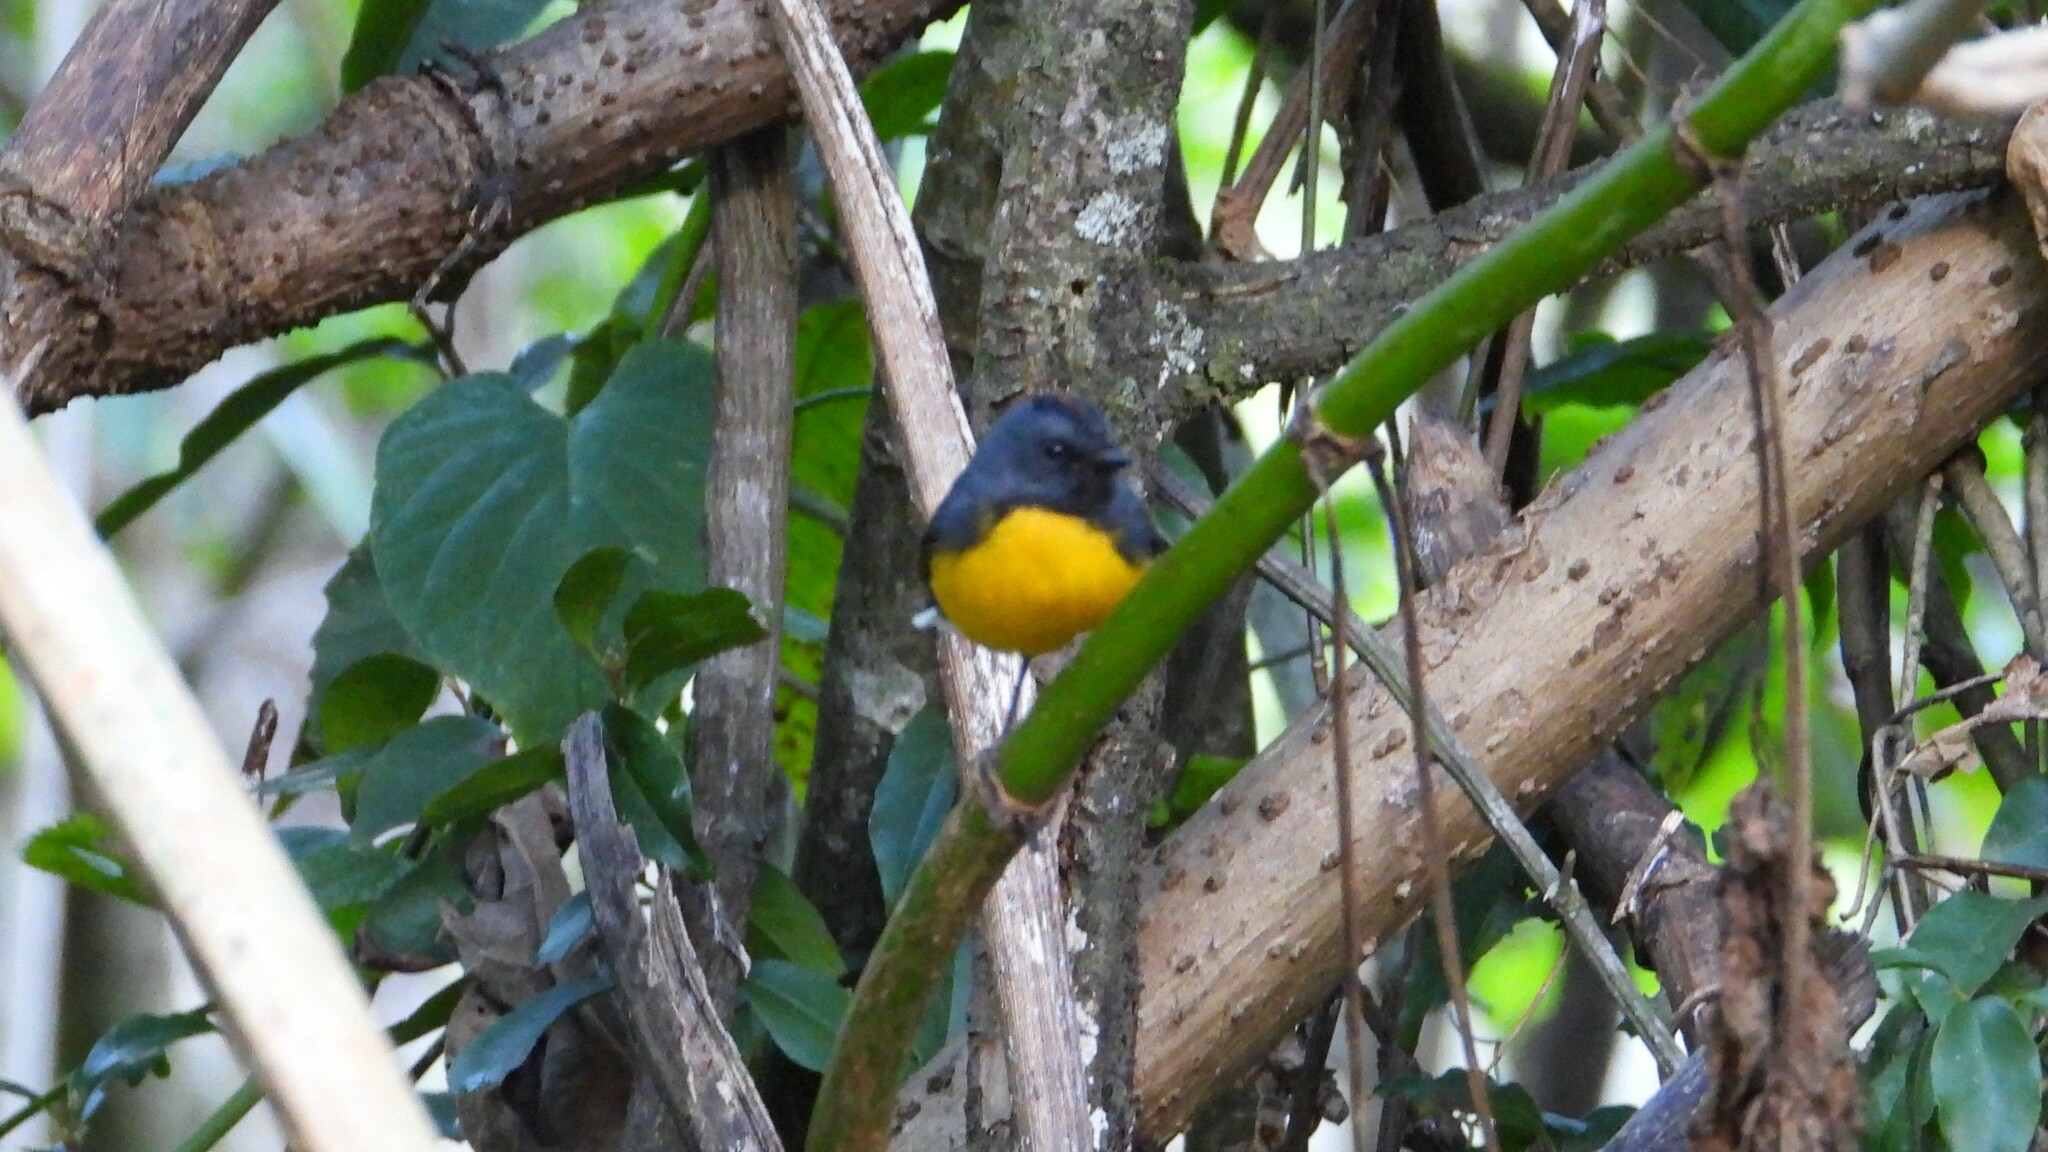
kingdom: Animalia
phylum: Chordata
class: Aves
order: Passeriformes
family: Parulidae
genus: Myioborus
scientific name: Myioborus miniatus
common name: Slate-throated redstart
